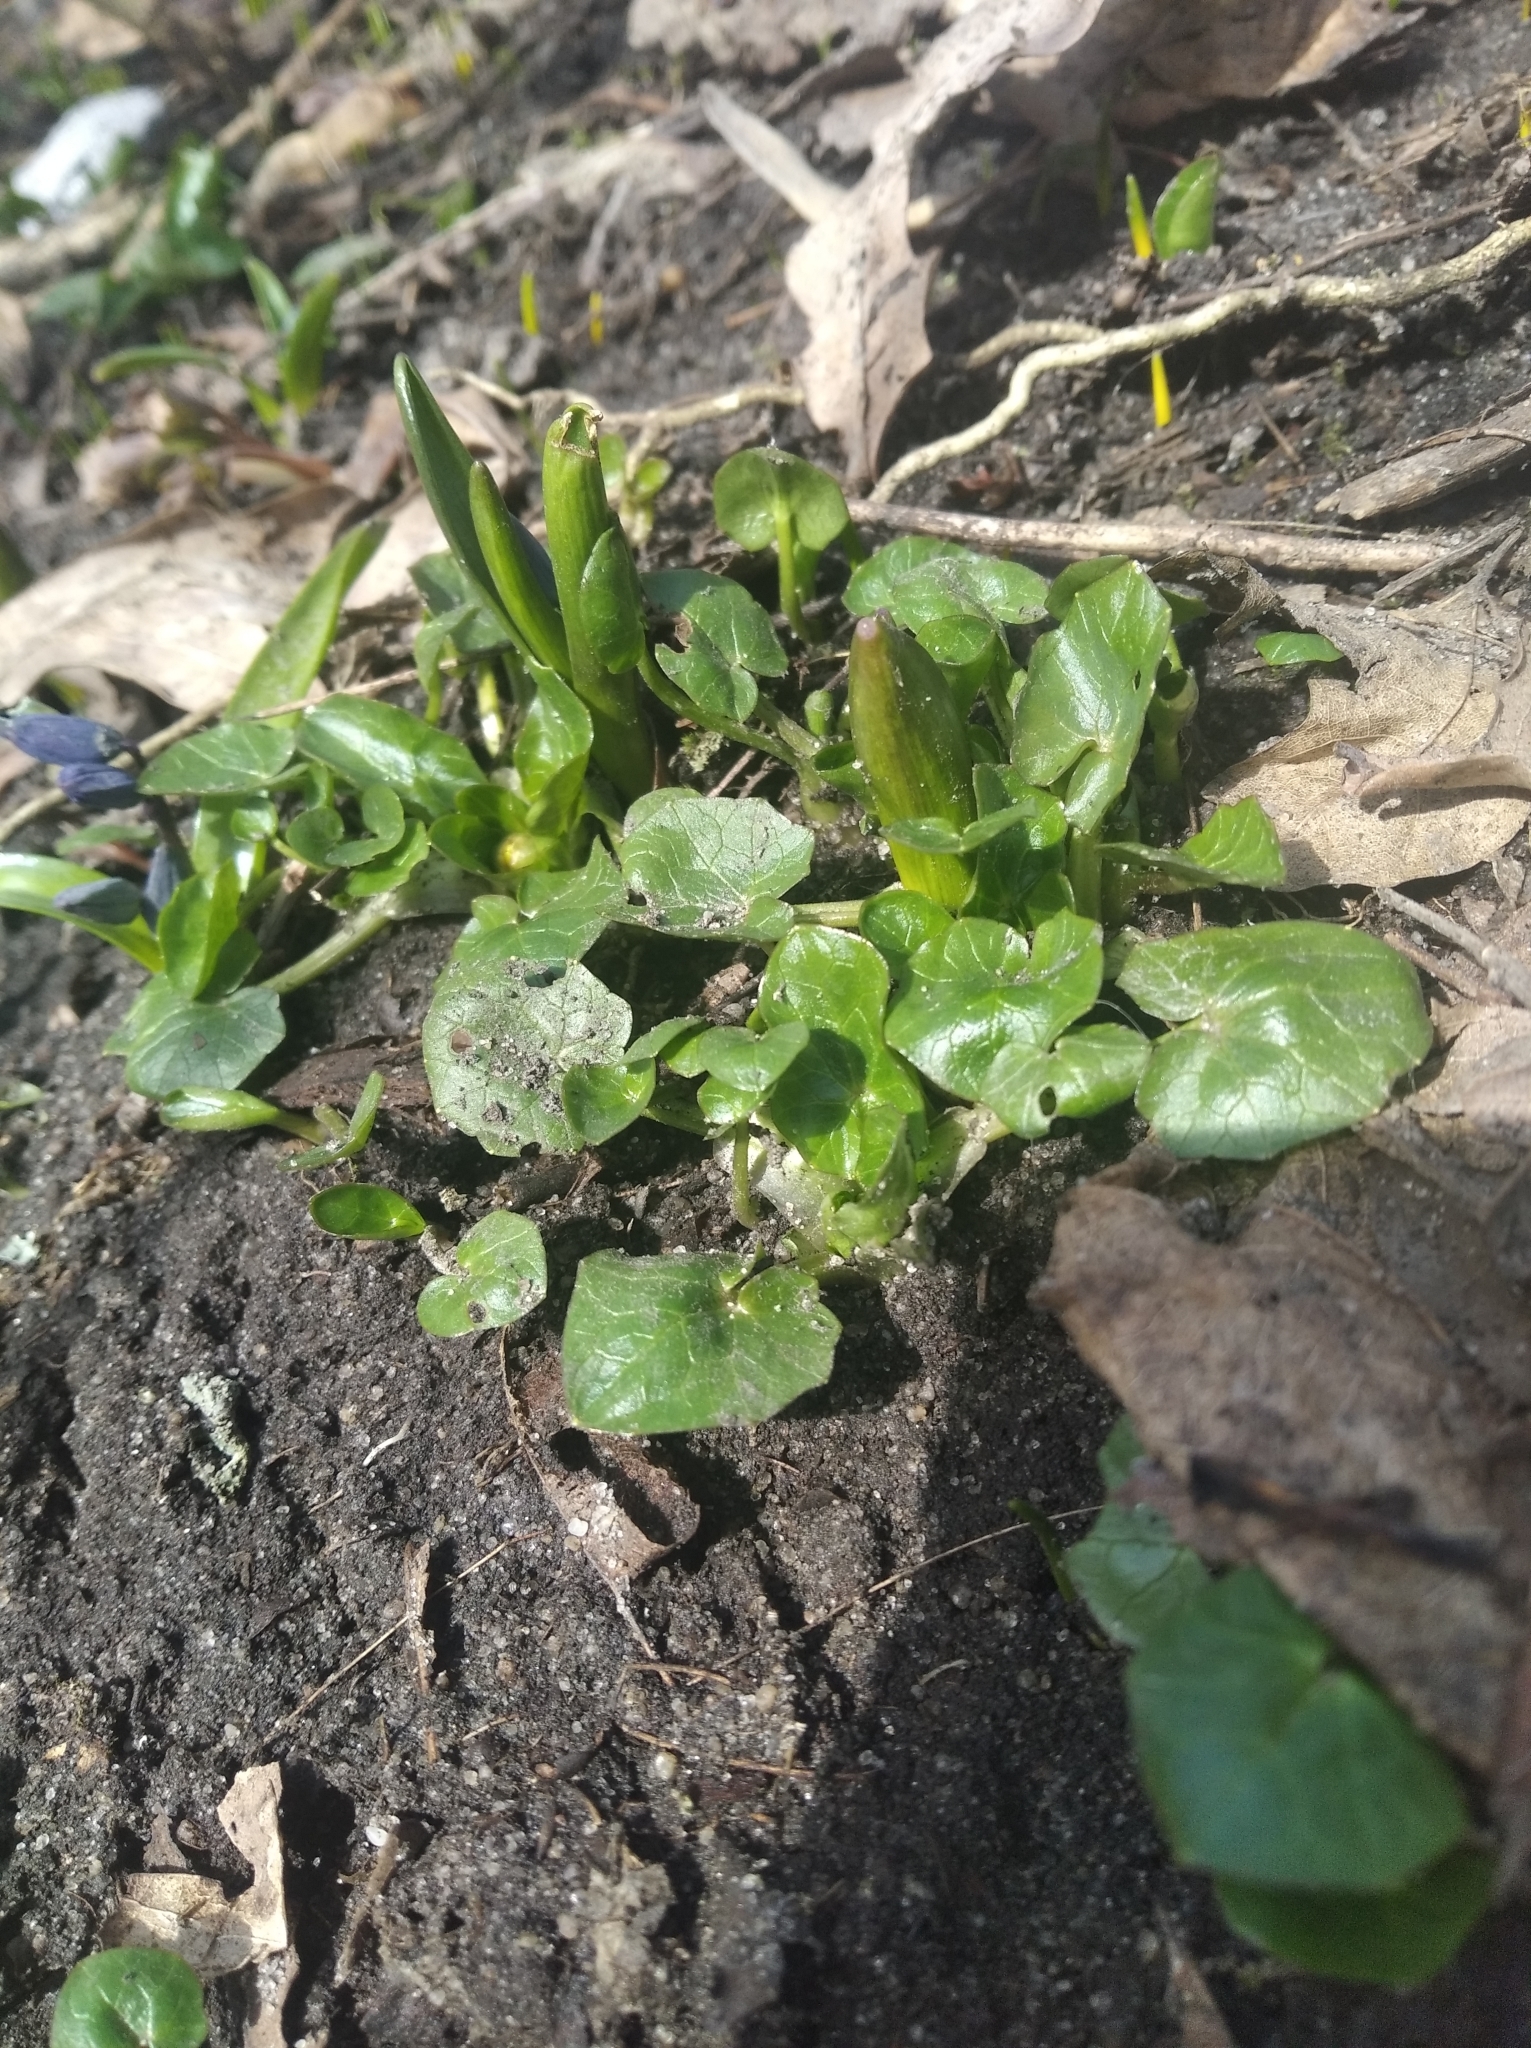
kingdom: Plantae
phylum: Tracheophyta
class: Magnoliopsida
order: Ranunculales
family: Ranunculaceae
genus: Ficaria
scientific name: Ficaria verna
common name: Lesser celandine
